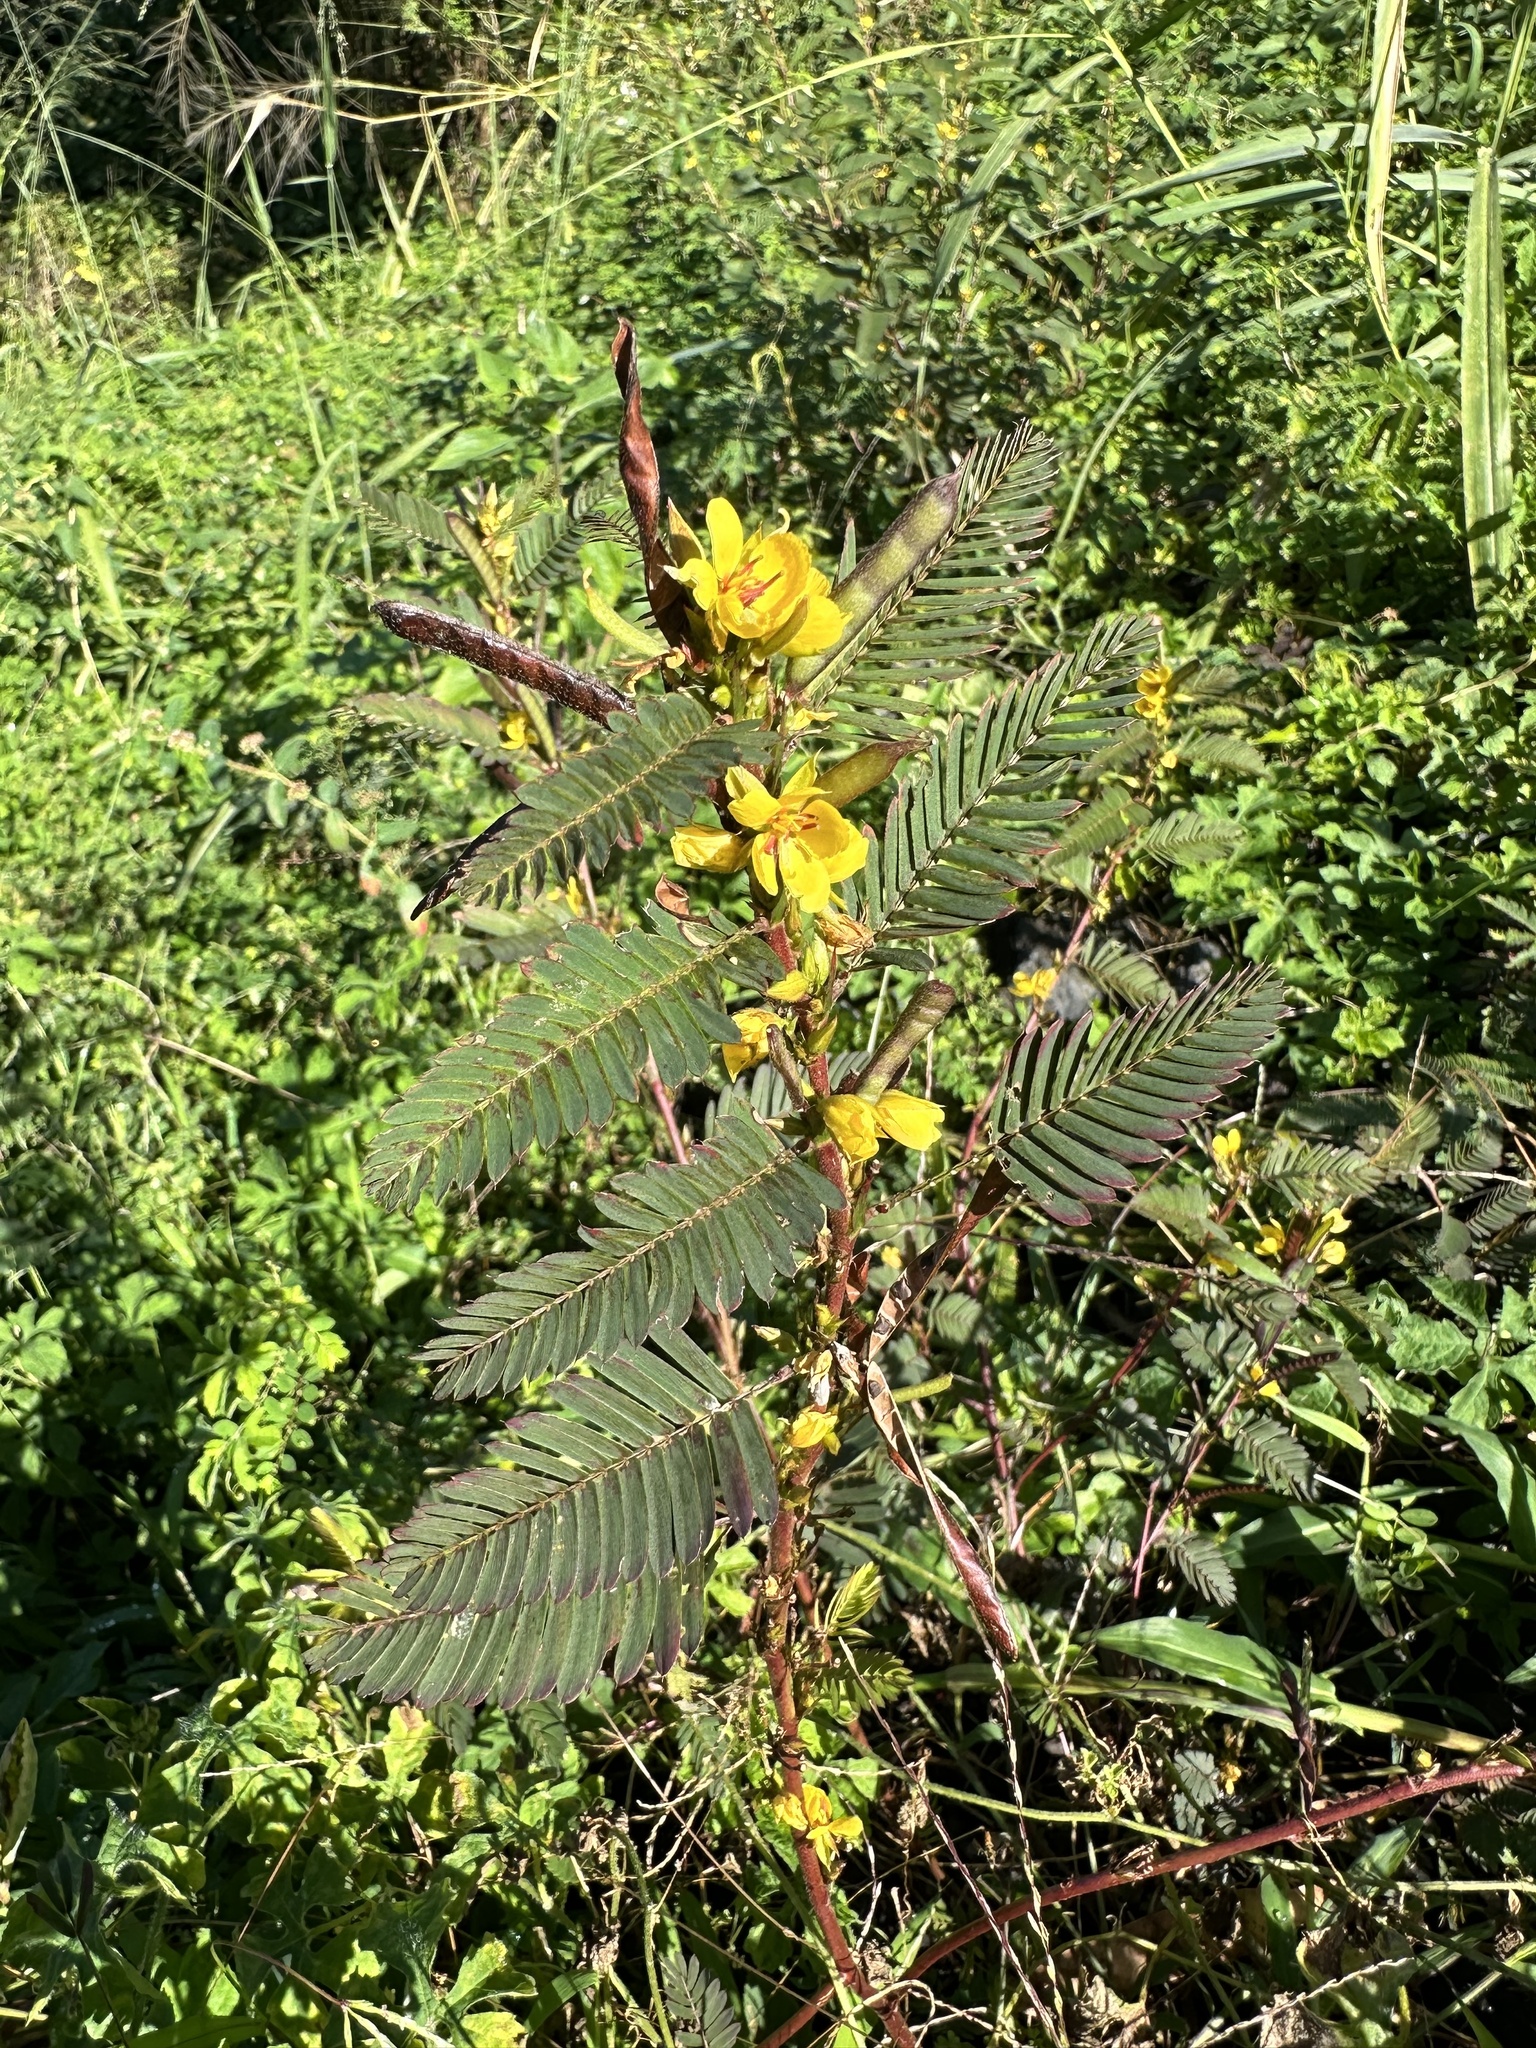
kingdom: Plantae
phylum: Tracheophyta
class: Magnoliopsida
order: Fabales
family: Fabaceae
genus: Chamaecrista
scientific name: Chamaecrista nictitans
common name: Sensitive cassia
